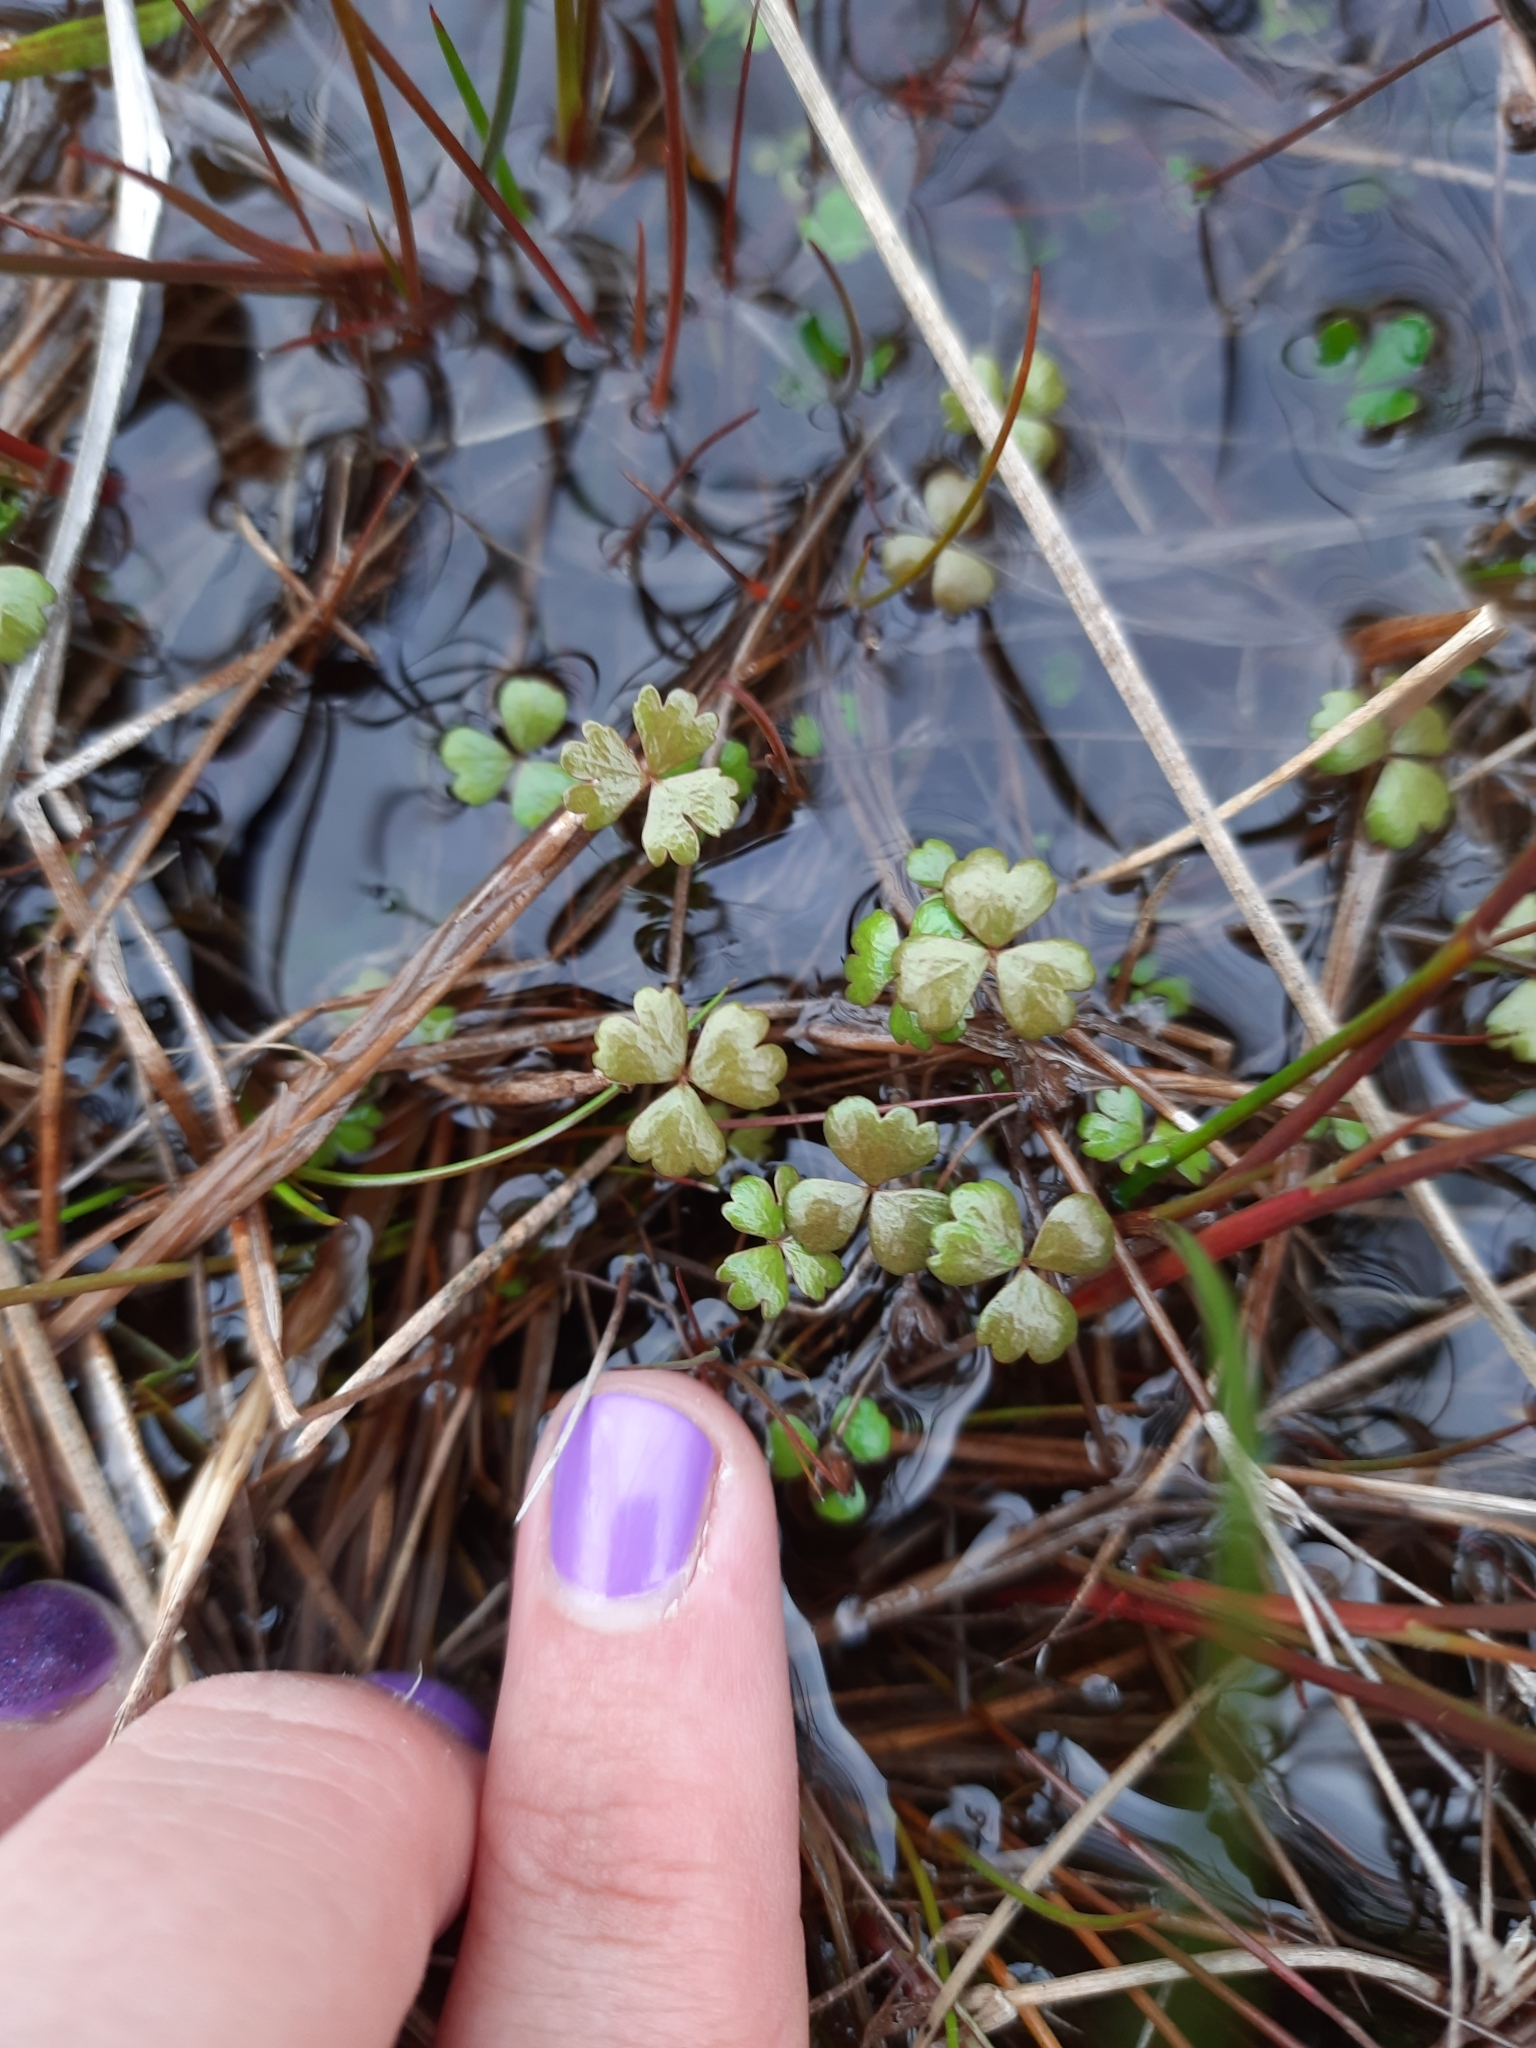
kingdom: Plantae
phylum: Tracheophyta
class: Magnoliopsida
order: Apiales
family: Araliaceae
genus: Hydrocotyle
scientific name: Hydrocotyle sulcata
